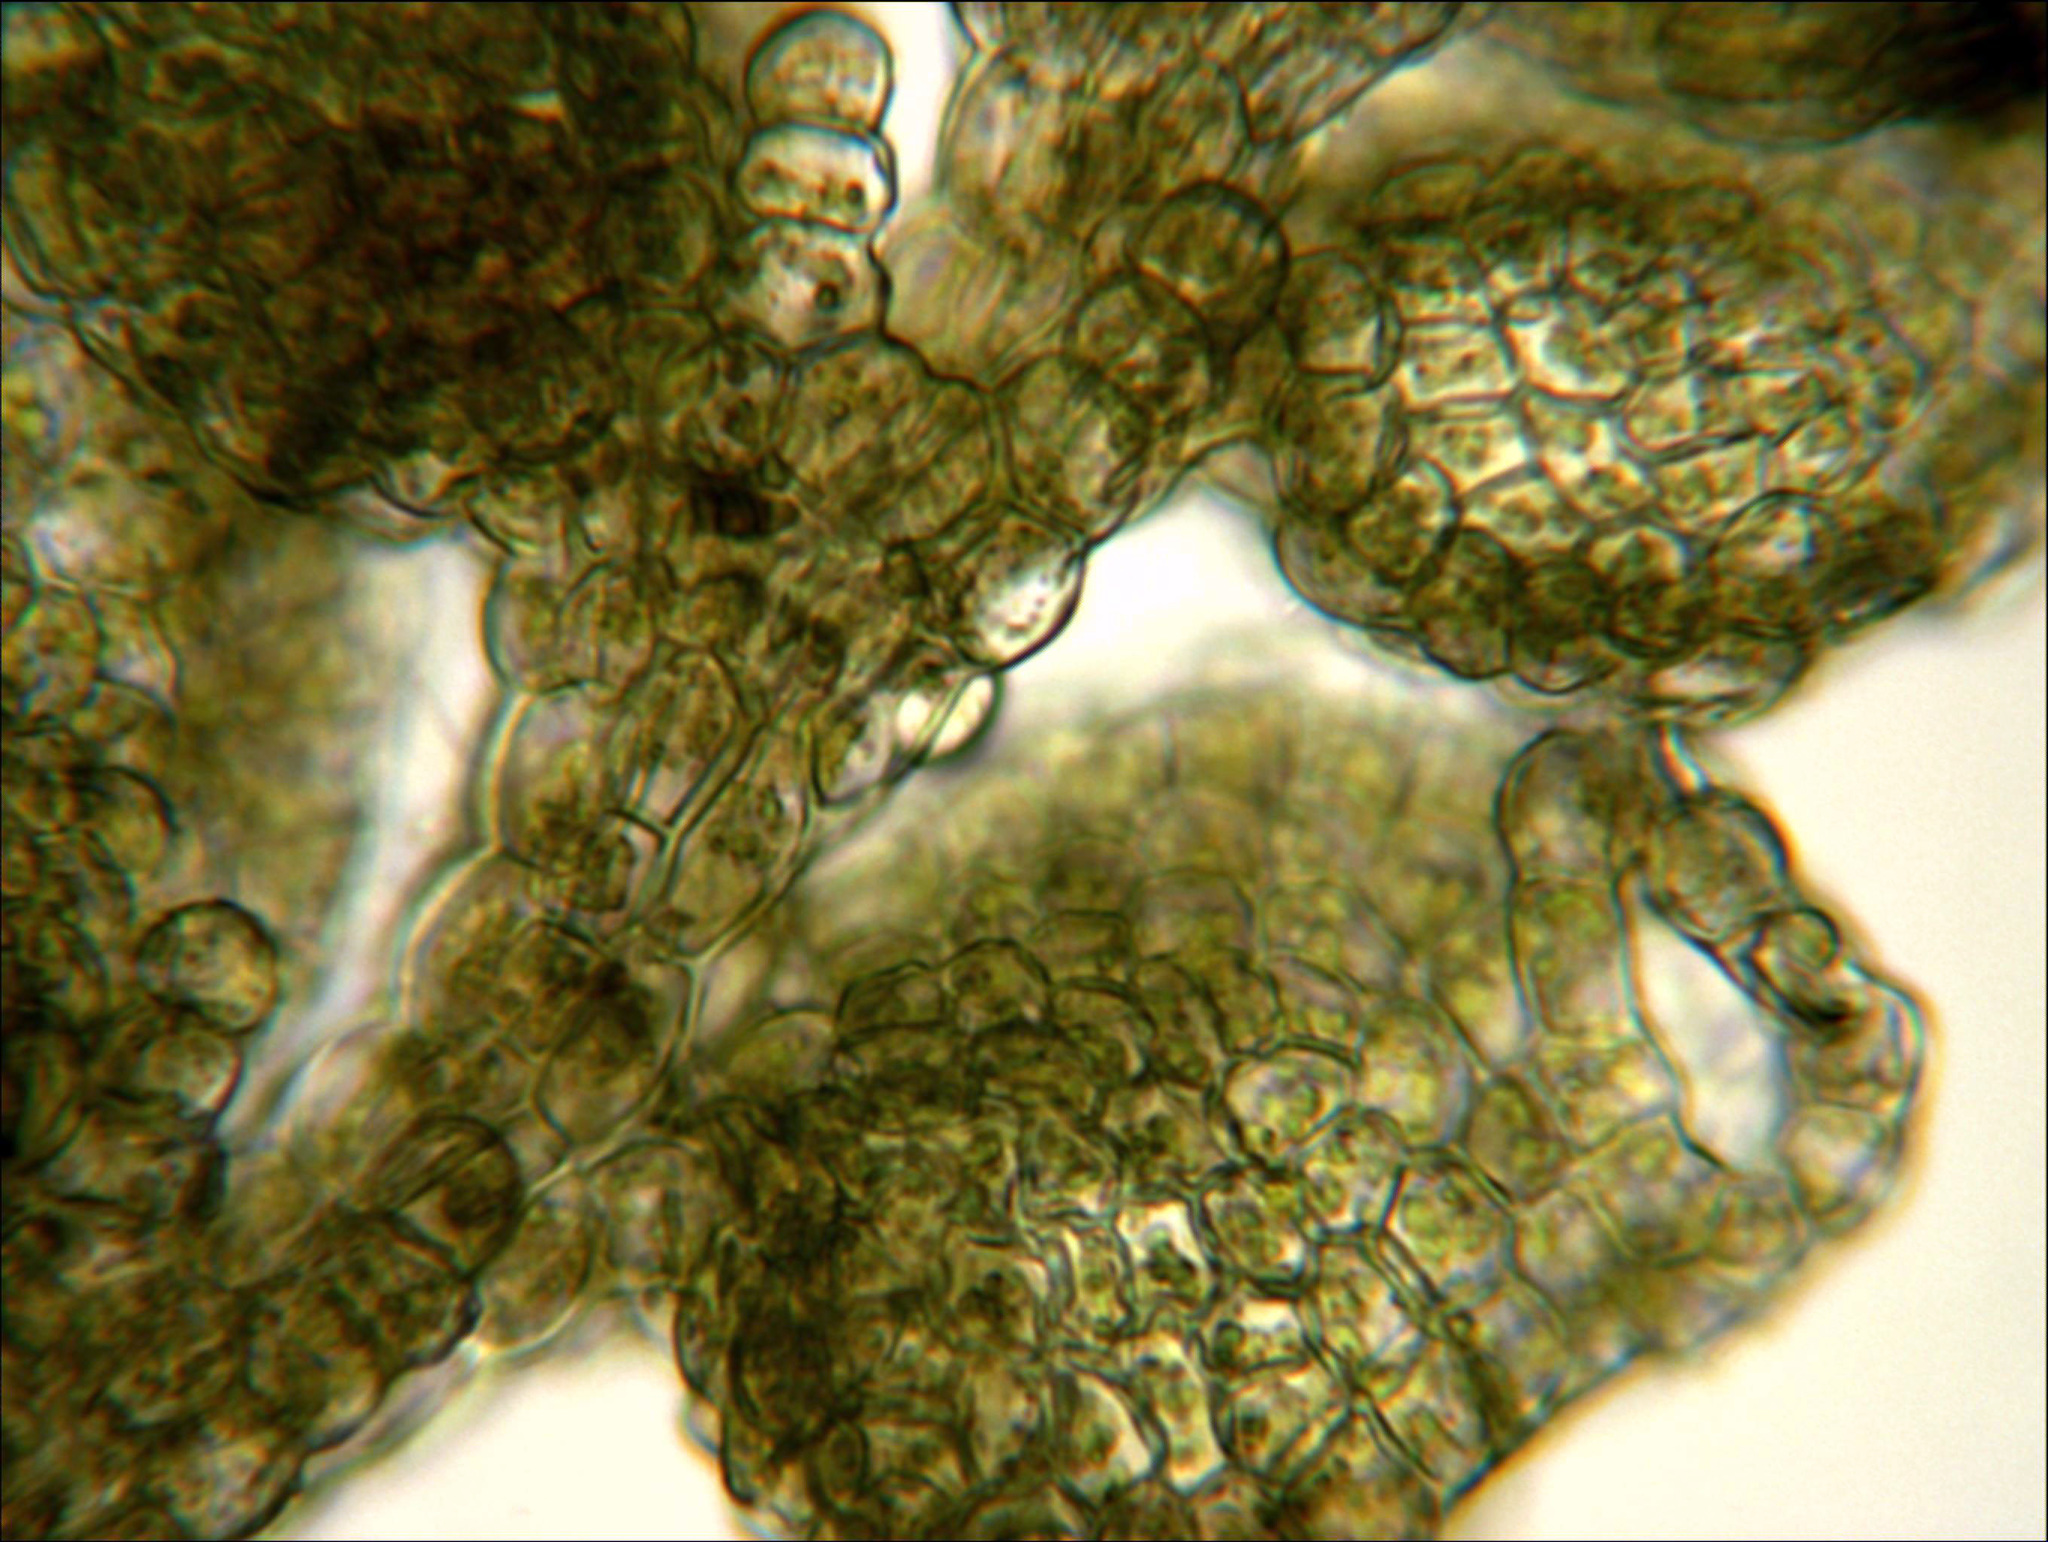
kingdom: Plantae
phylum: Marchantiophyta
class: Jungermanniopsida
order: Porellales
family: Lejeuneaceae
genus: Siphonolejeunea
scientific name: Siphonolejeunea raharahanehemiae
